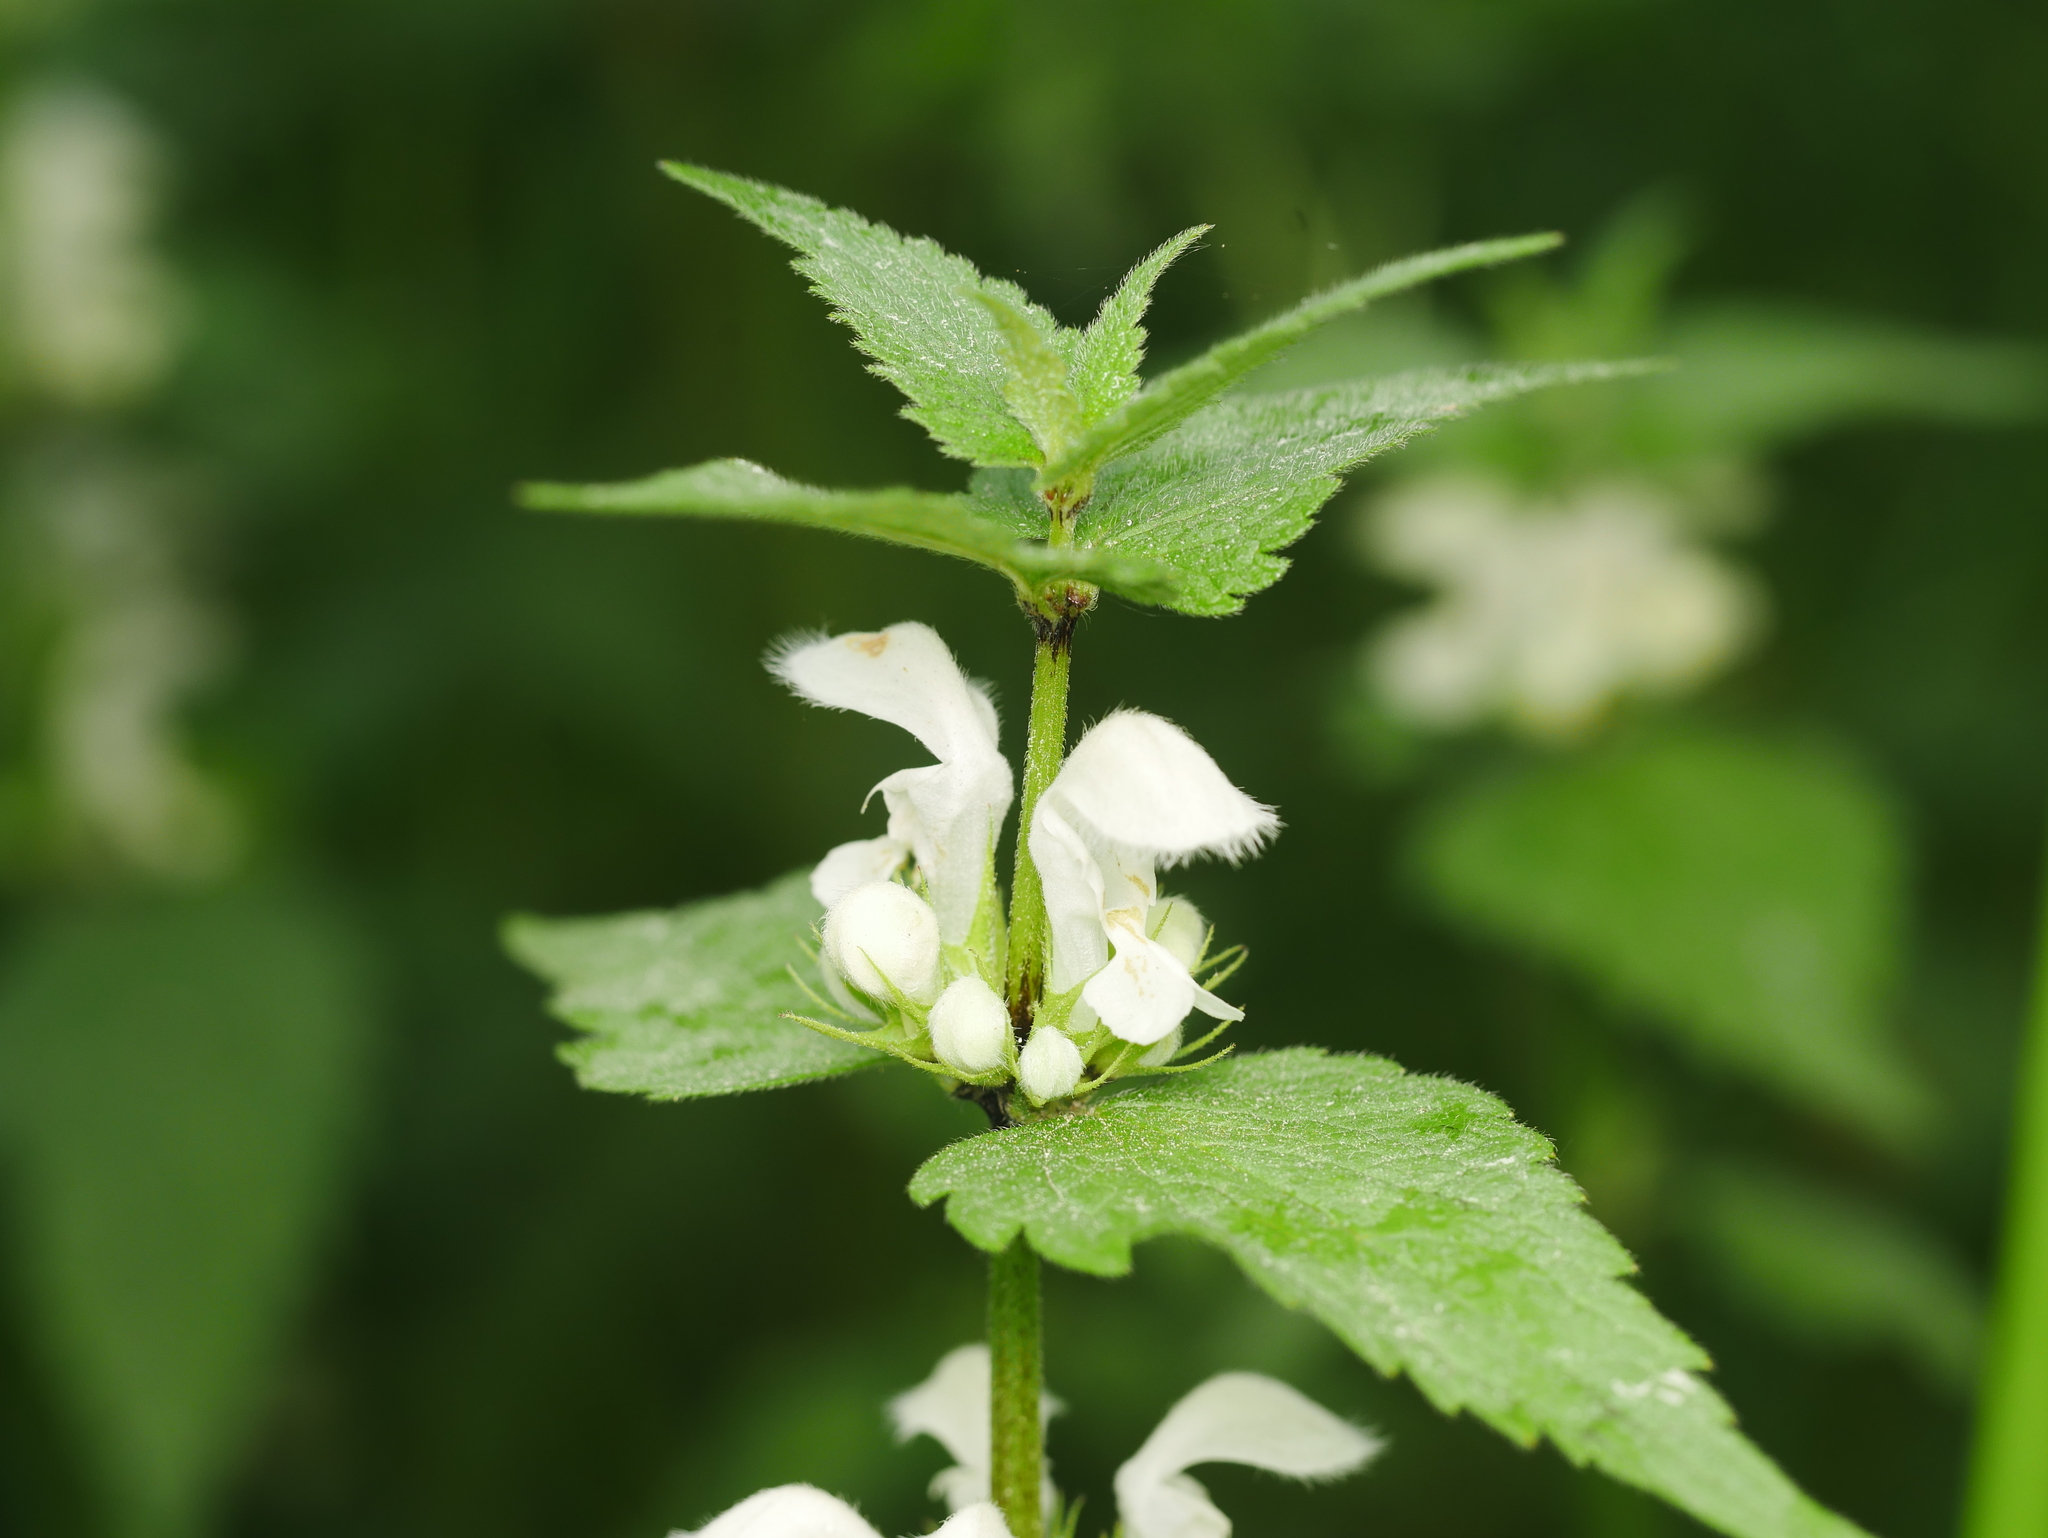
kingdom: Plantae
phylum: Tracheophyta
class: Magnoliopsida
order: Lamiales
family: Lamiaceae
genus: Lamium
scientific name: Lamium album
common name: White dead-nettle
